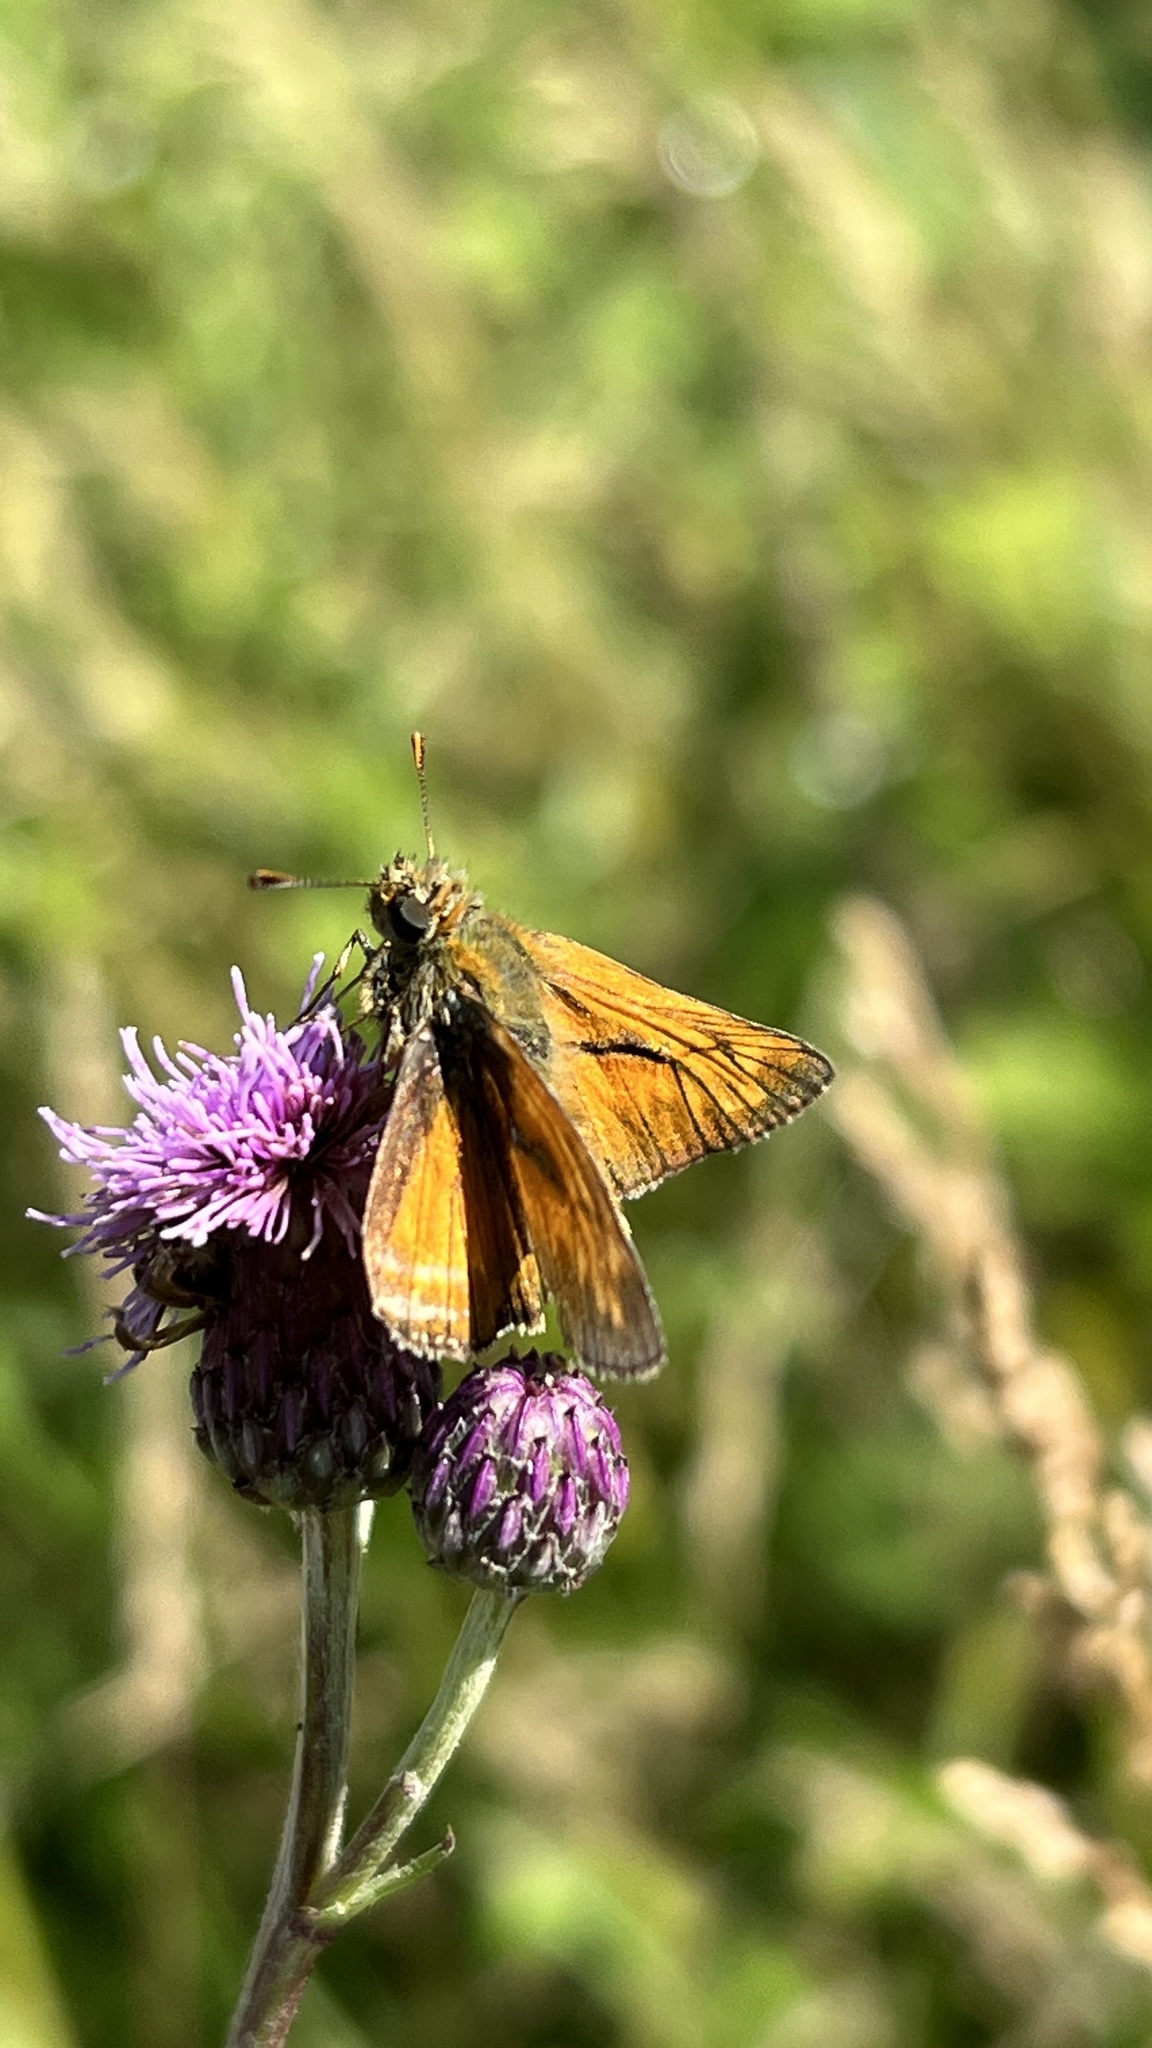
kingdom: Animalia
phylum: Arthropoda
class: Insecta
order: Lepidoptera
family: Hesperiidae
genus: Ochlodes
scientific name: Ochlodes venata
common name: Large skipper
